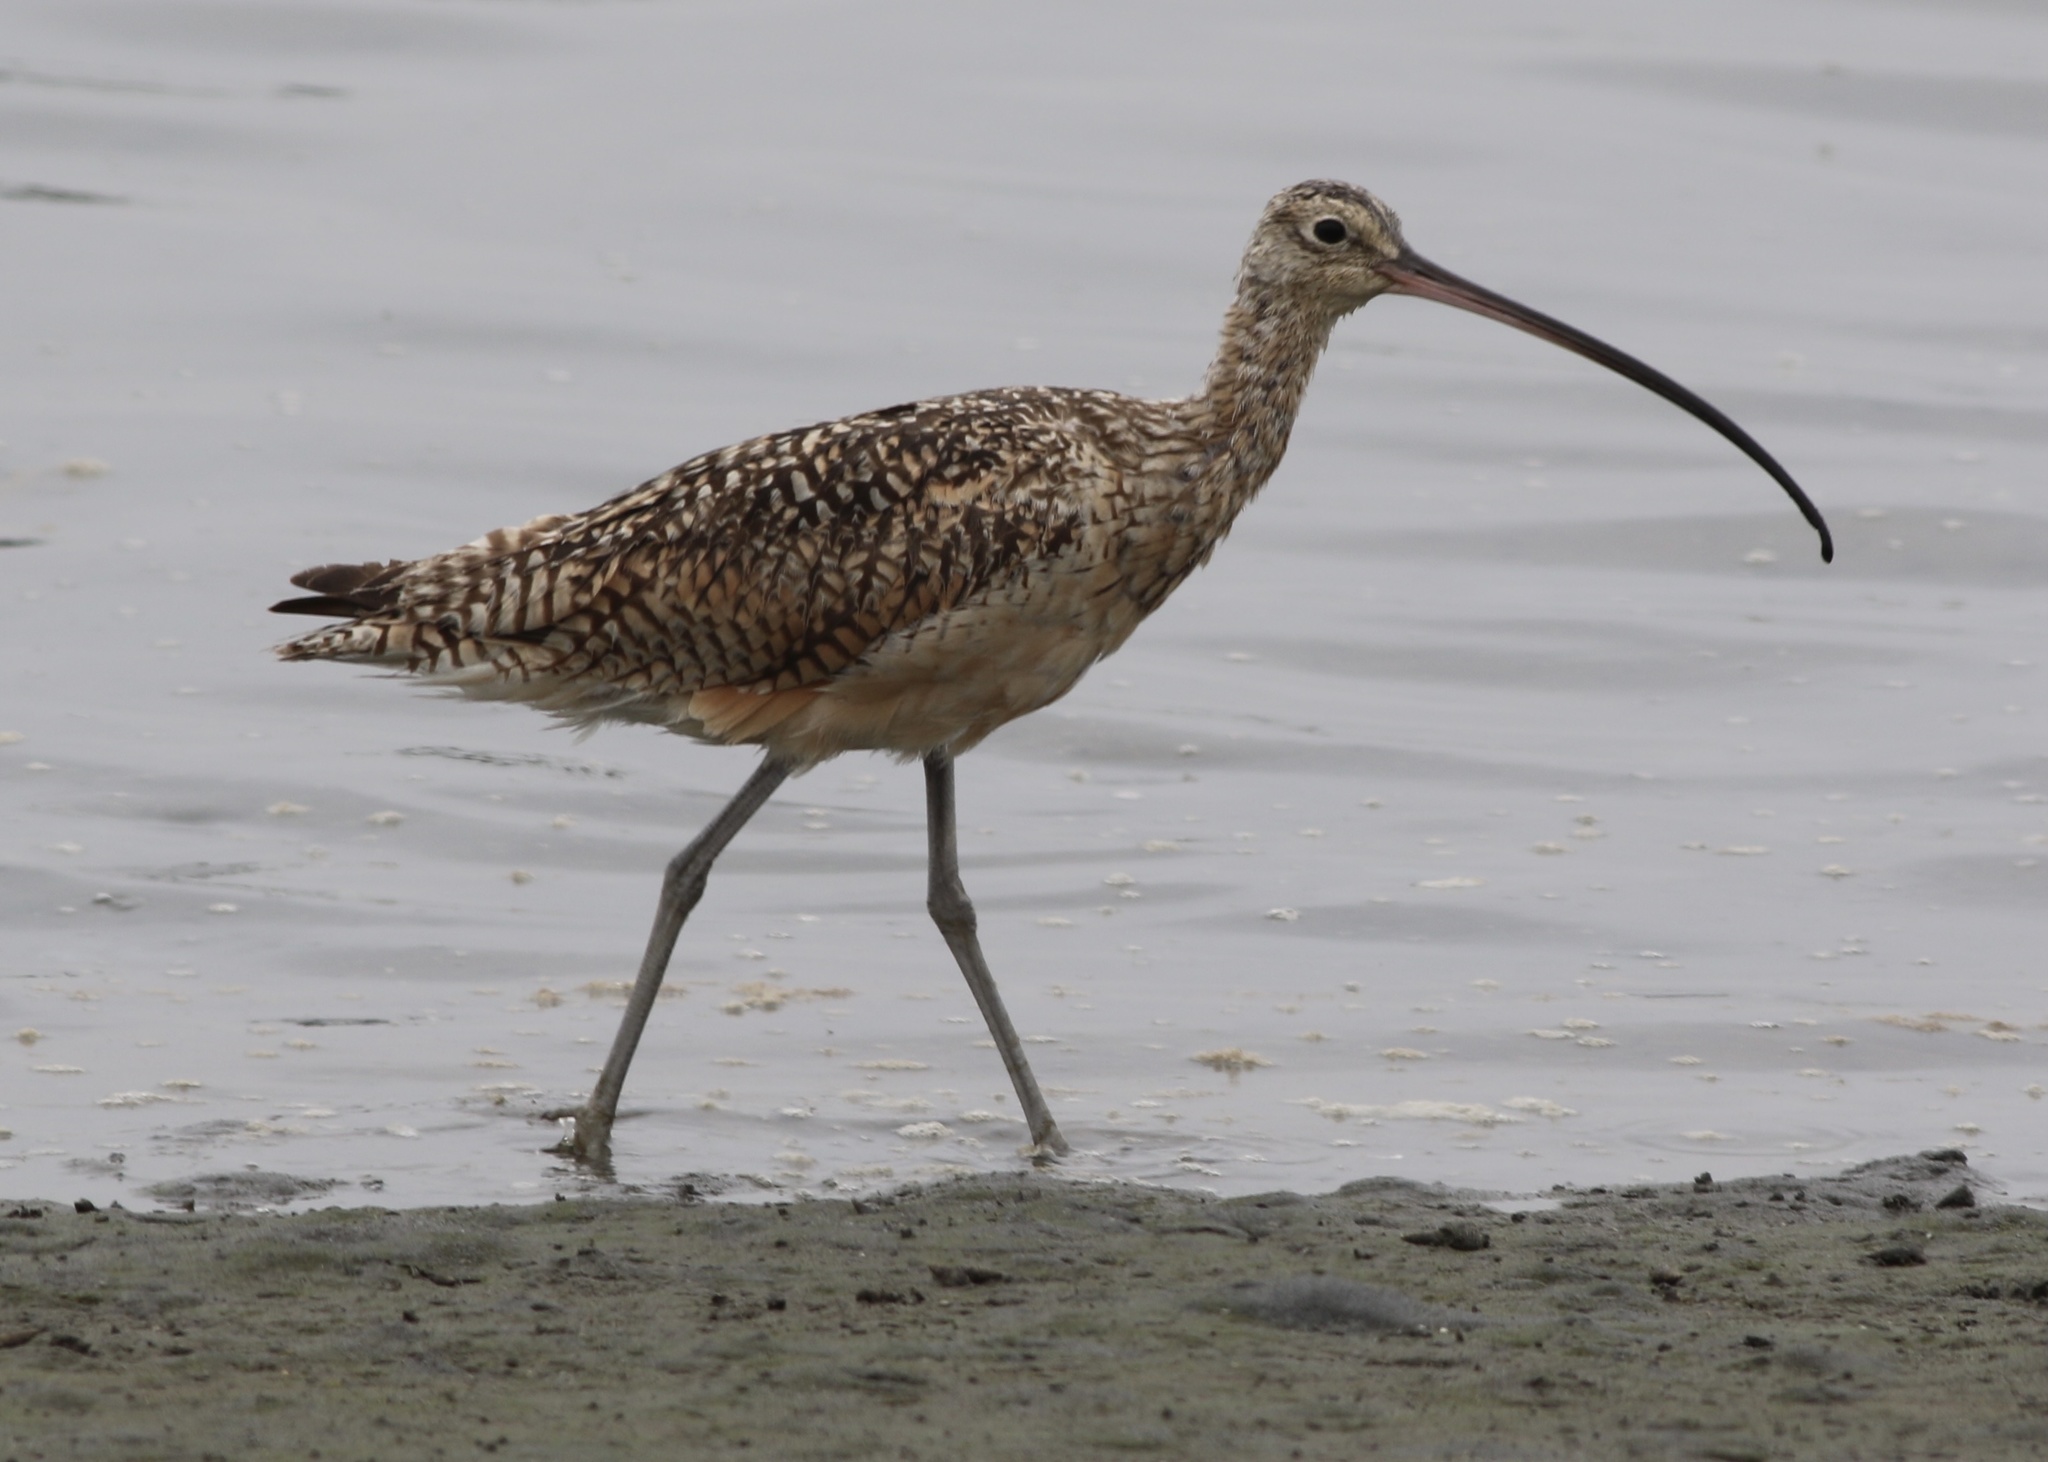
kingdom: Animalia
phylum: Chordata
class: Aves
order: Charadriiformes
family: Scolopacidae
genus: Numenius
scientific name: Numenius americanus
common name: Long-billed curlew
